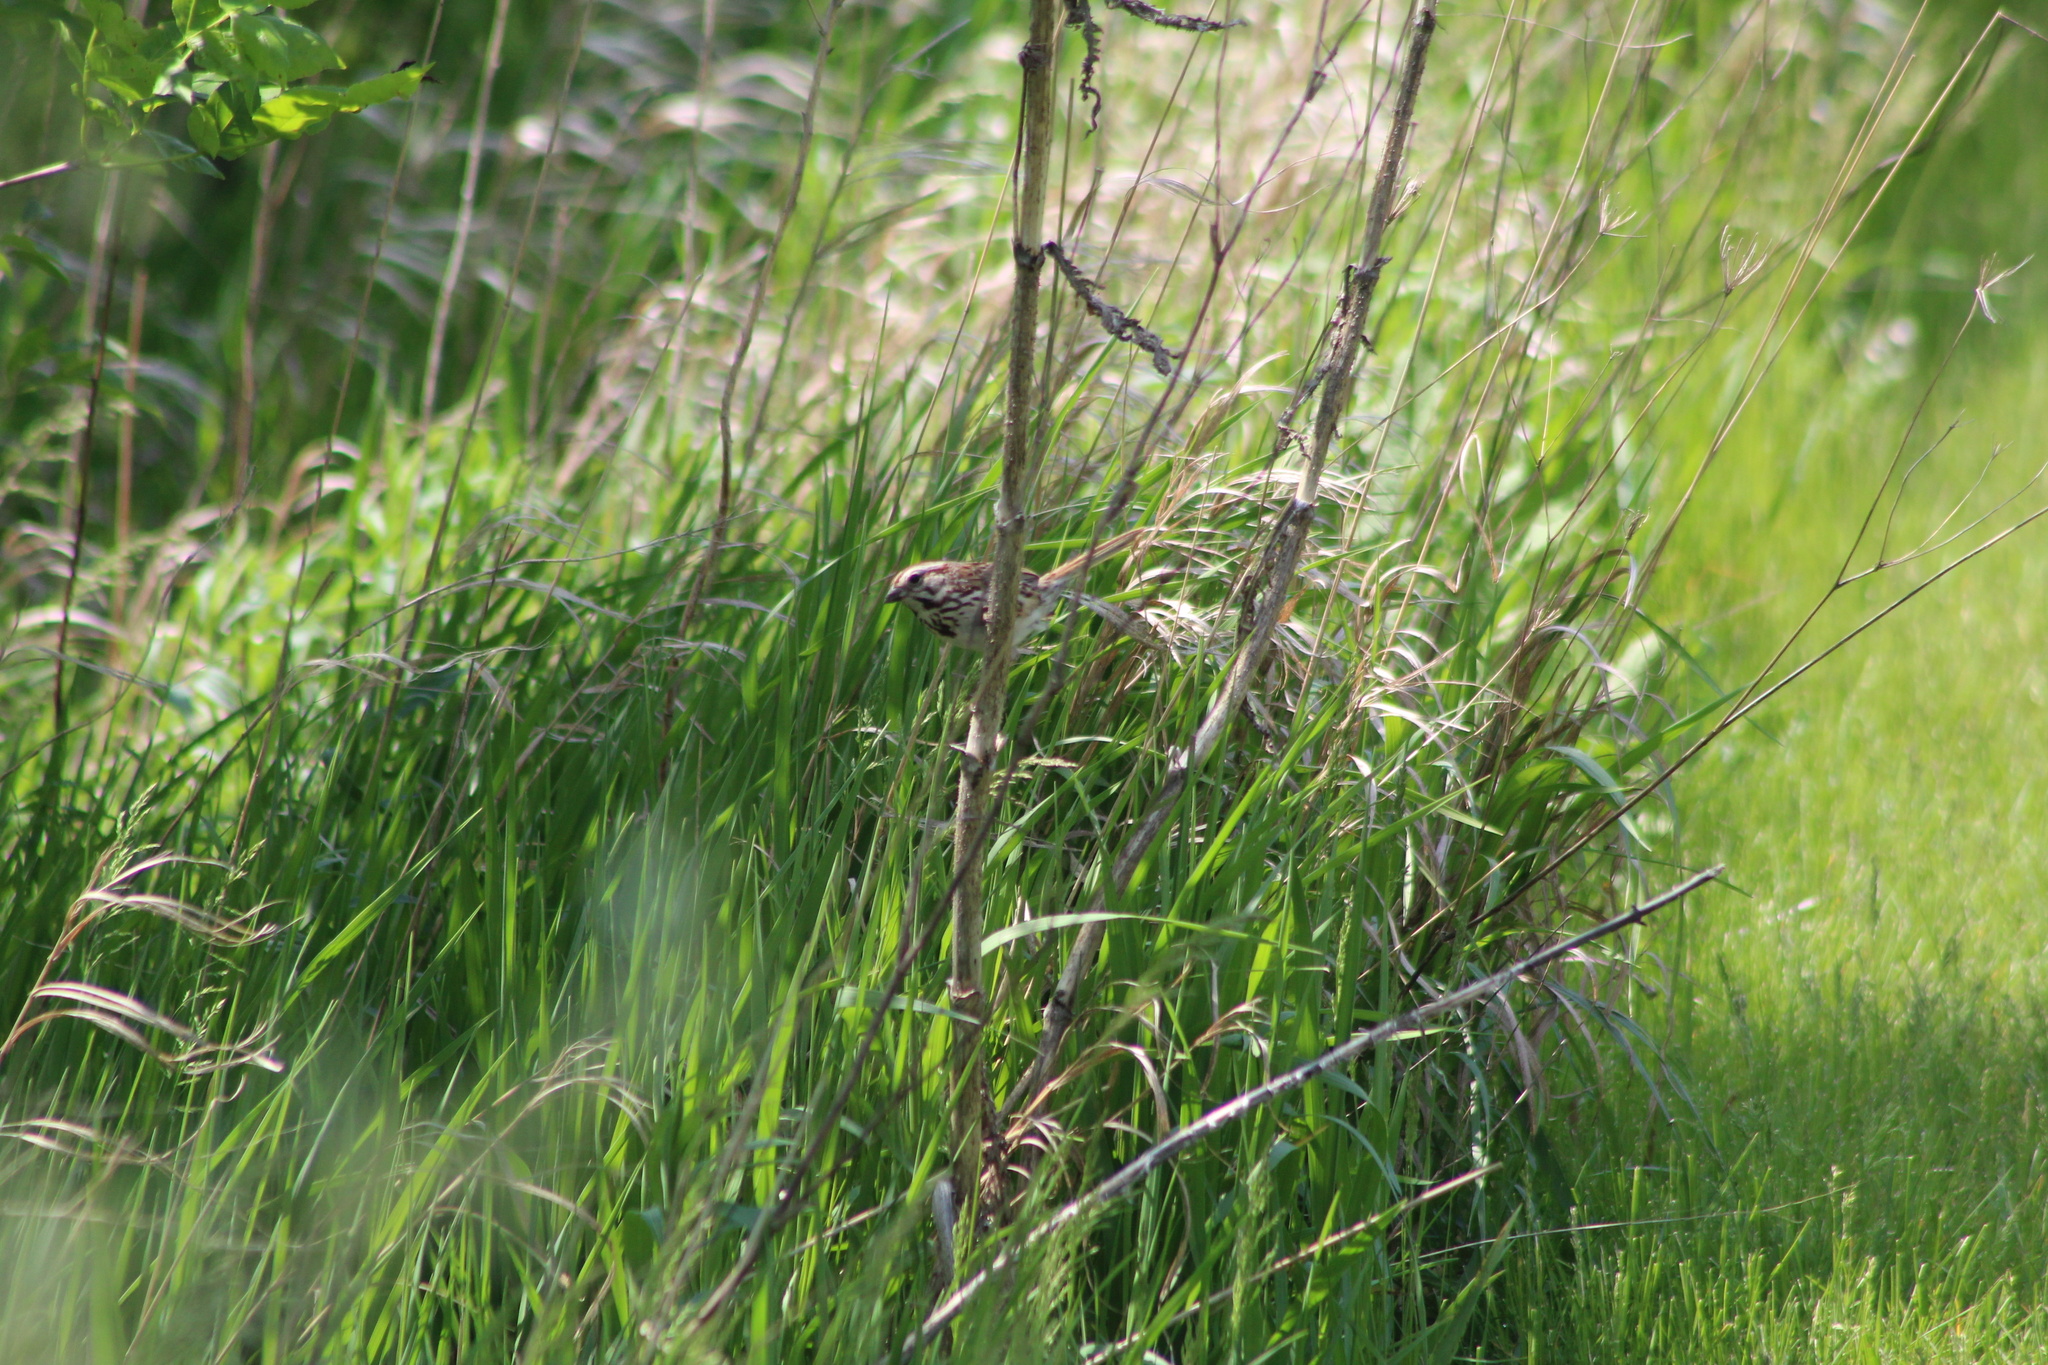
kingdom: Animalia
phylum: Chordata
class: Aves
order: Passeriformes
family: Passerellidae
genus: Melospiza
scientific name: Melospiza melodia
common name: Song sparrow
